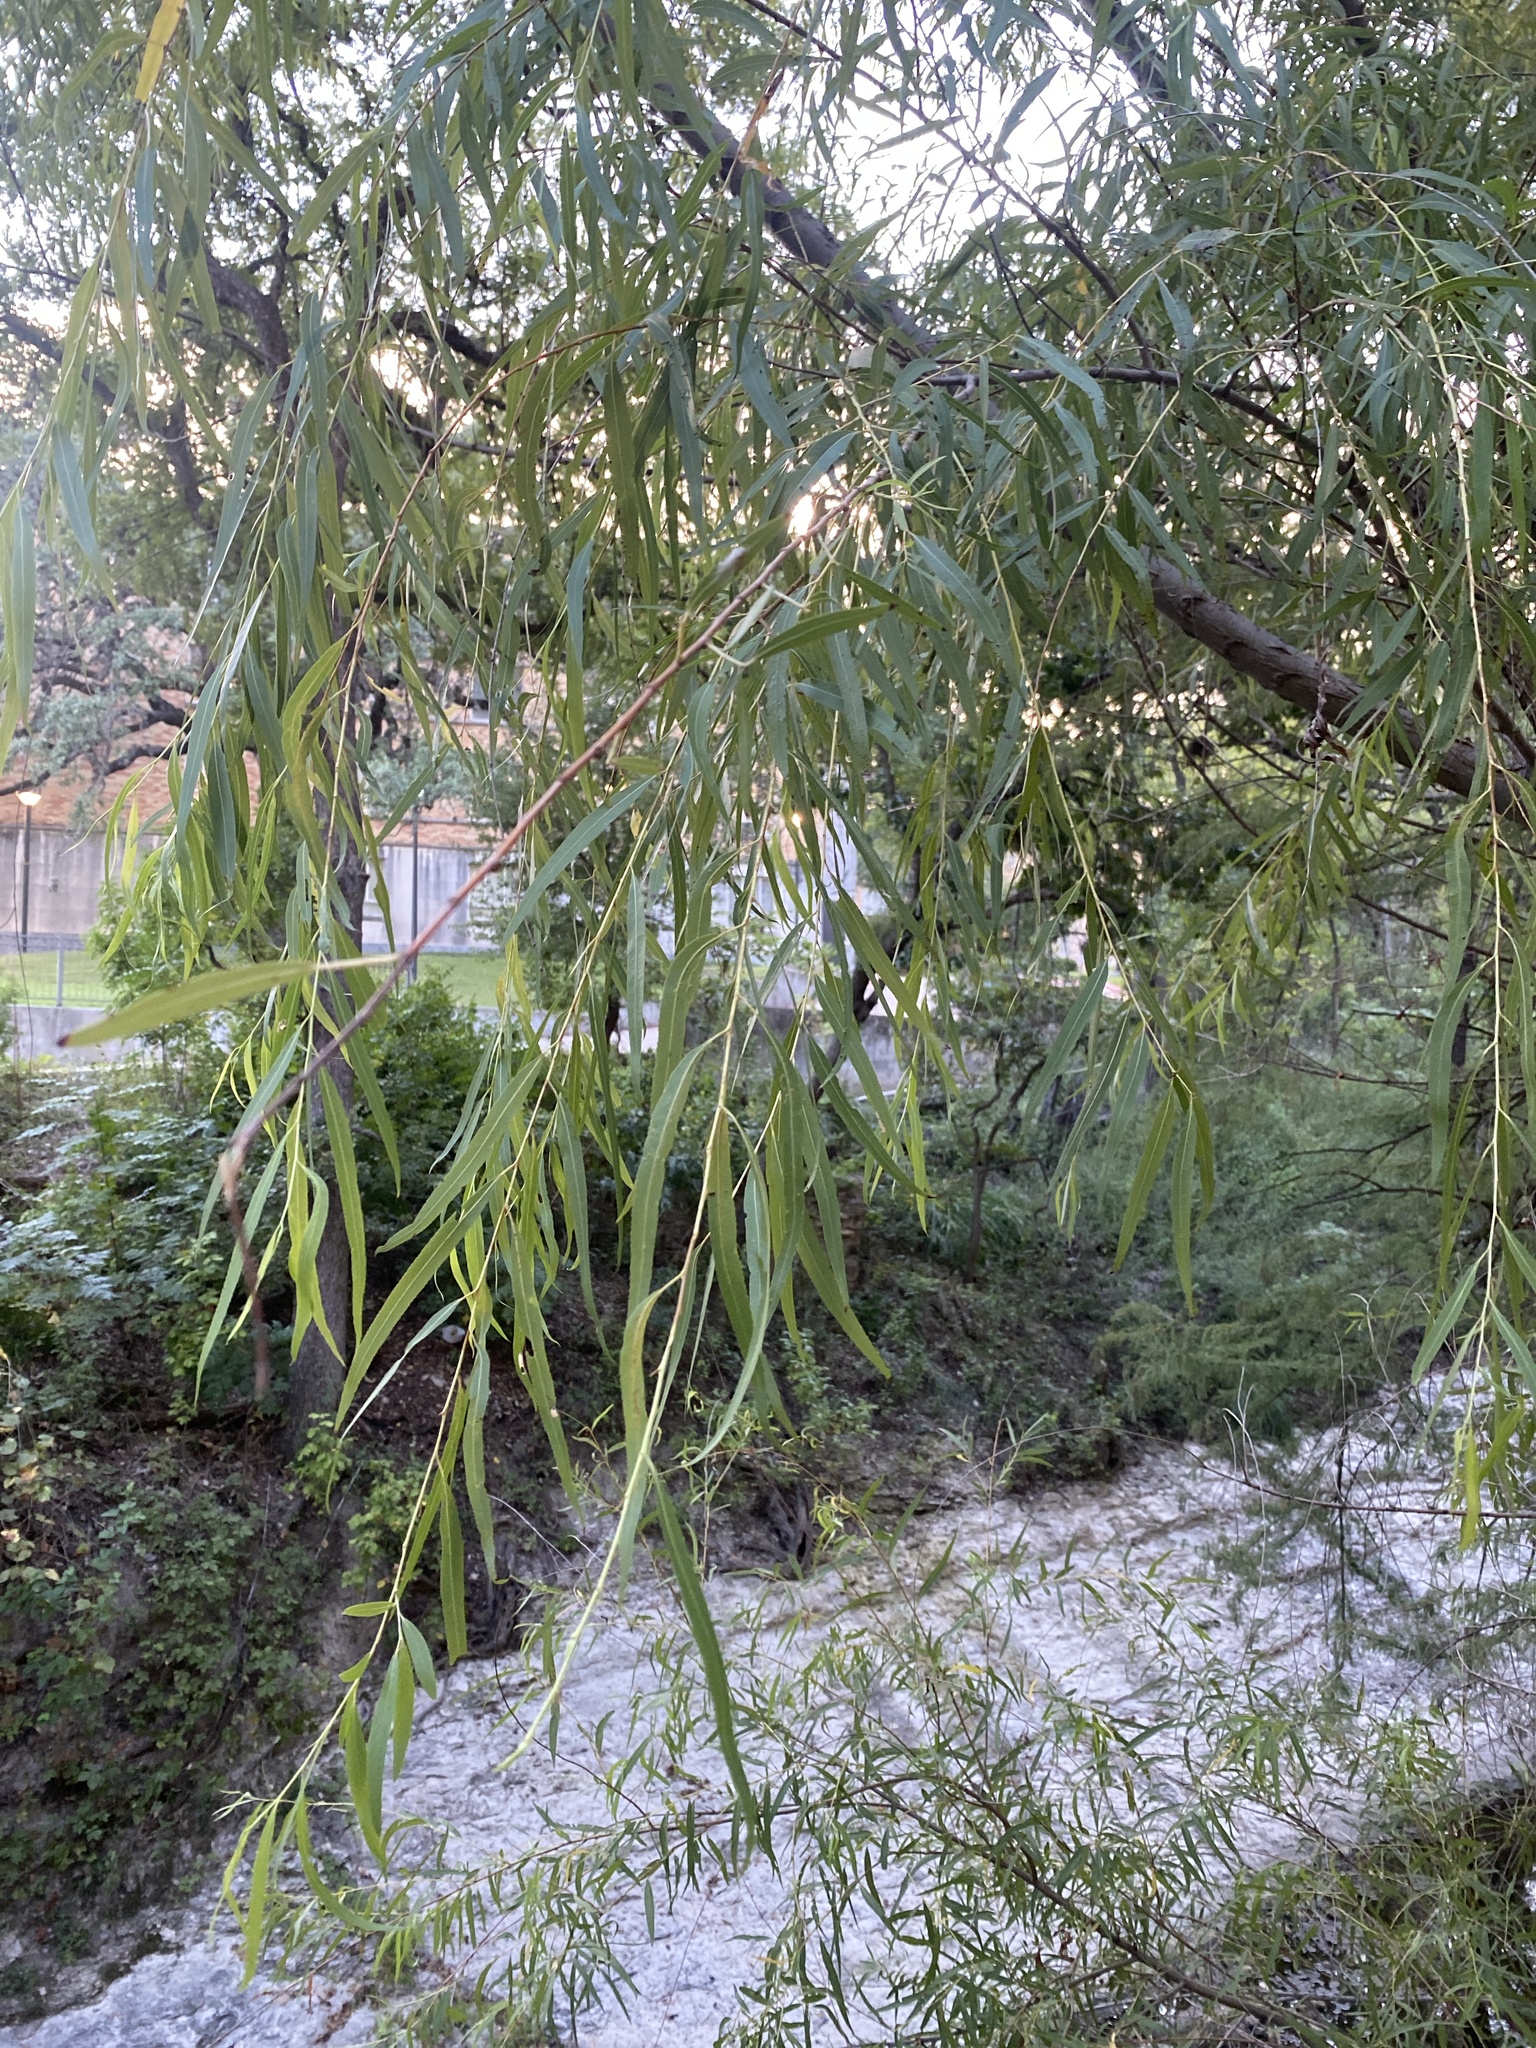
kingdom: Plantae
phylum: Tracheophyta
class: Magnoliopsida
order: Malpighiales
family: Salicaceae
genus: Salix
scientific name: Salix nigra
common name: Black willow
